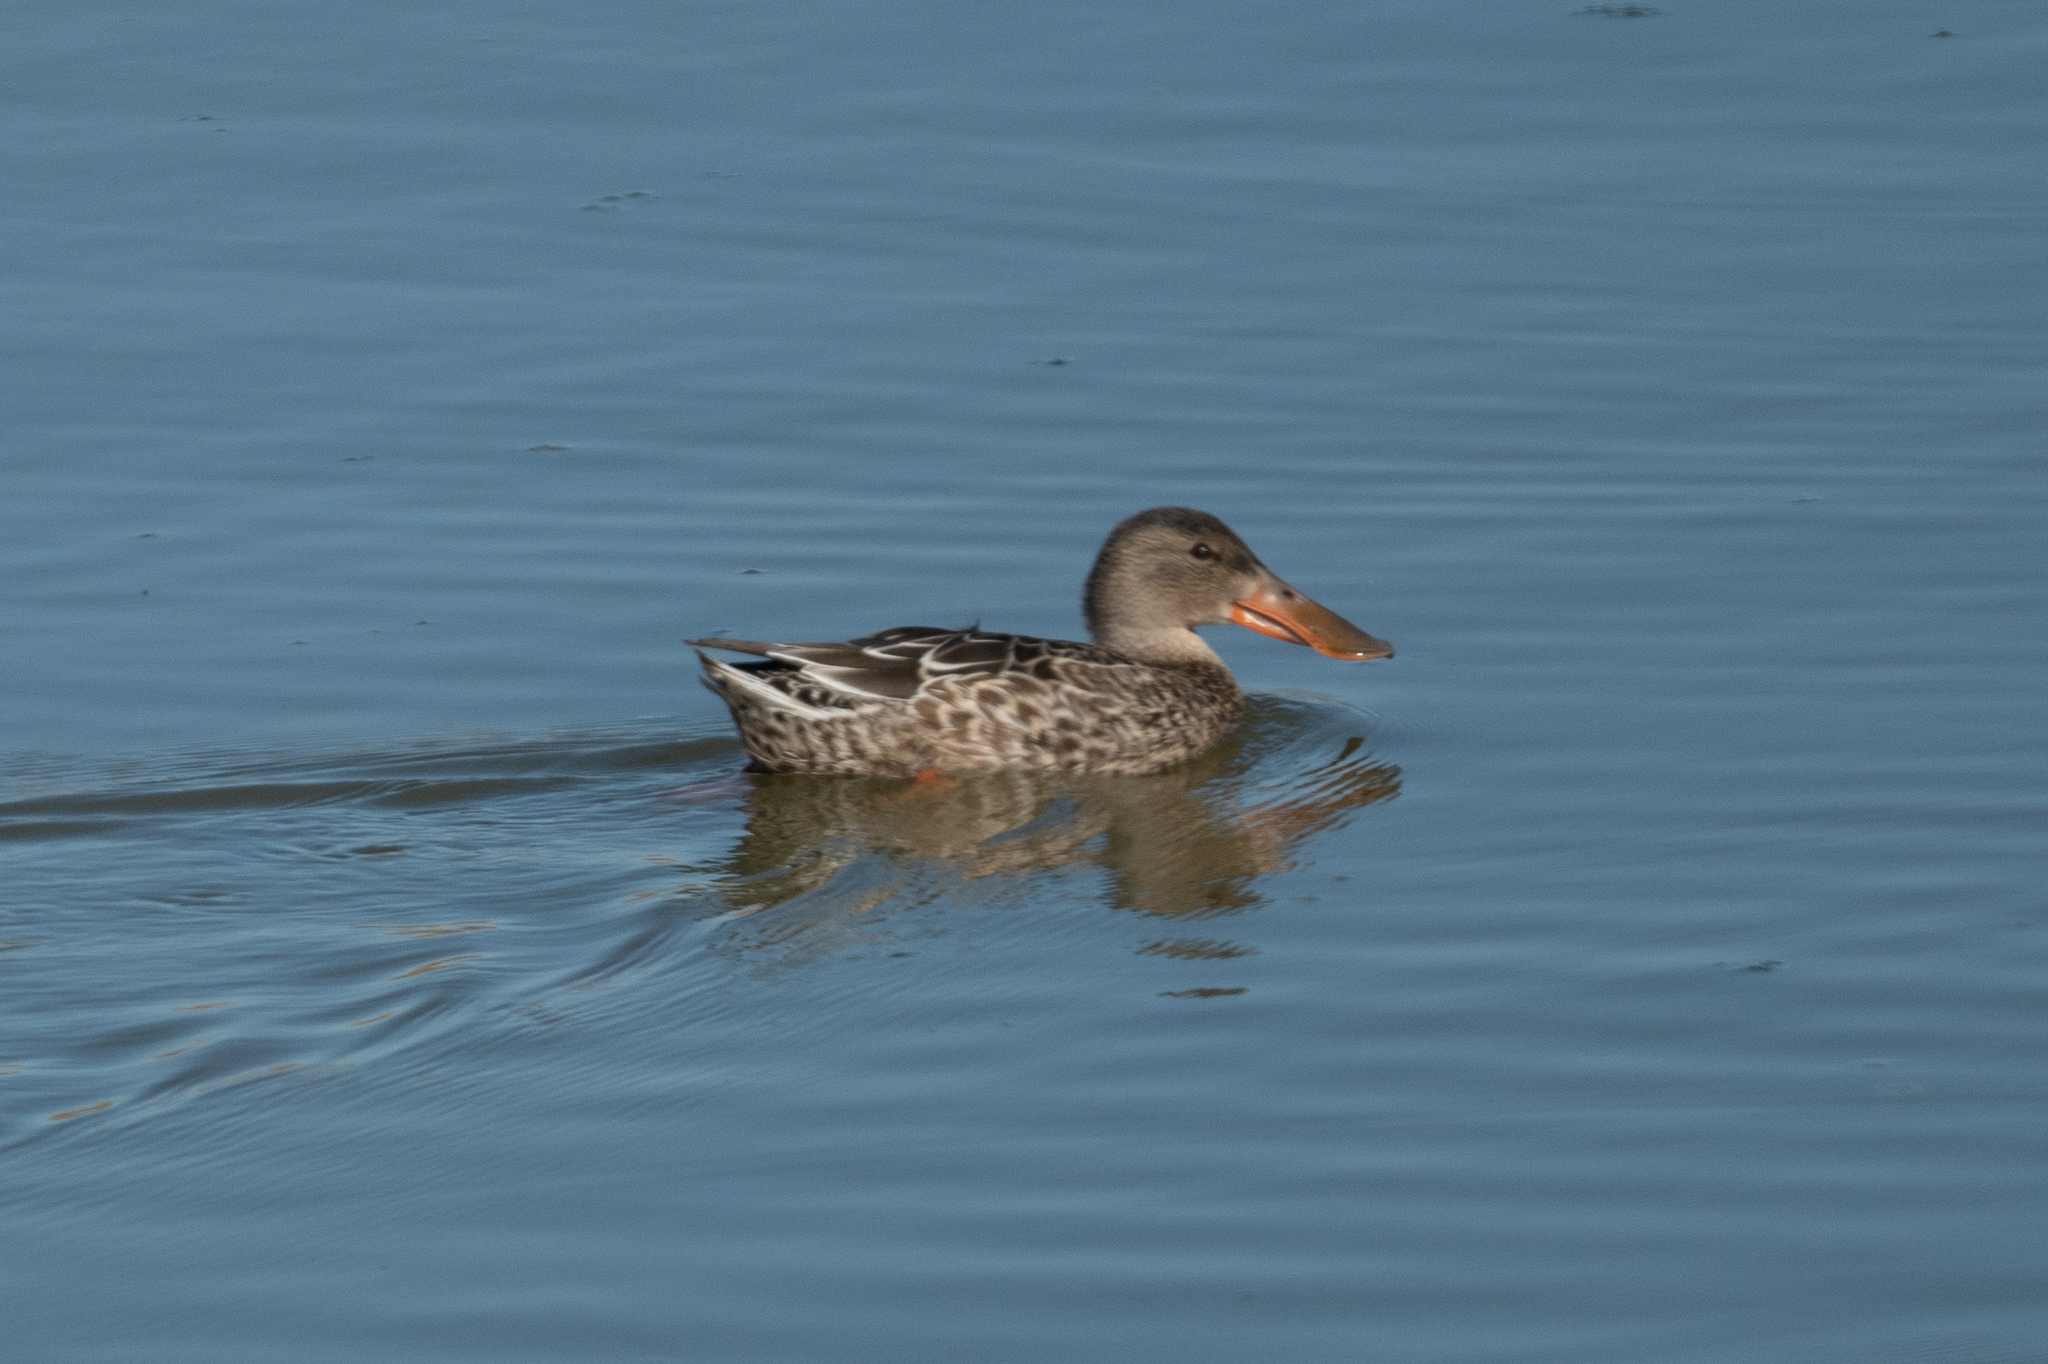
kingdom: Animalia
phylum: Chordata
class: Aves
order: Anseriformes
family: Anatidae
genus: Spatula
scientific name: Spatula clypeata
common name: Northern shoveler
